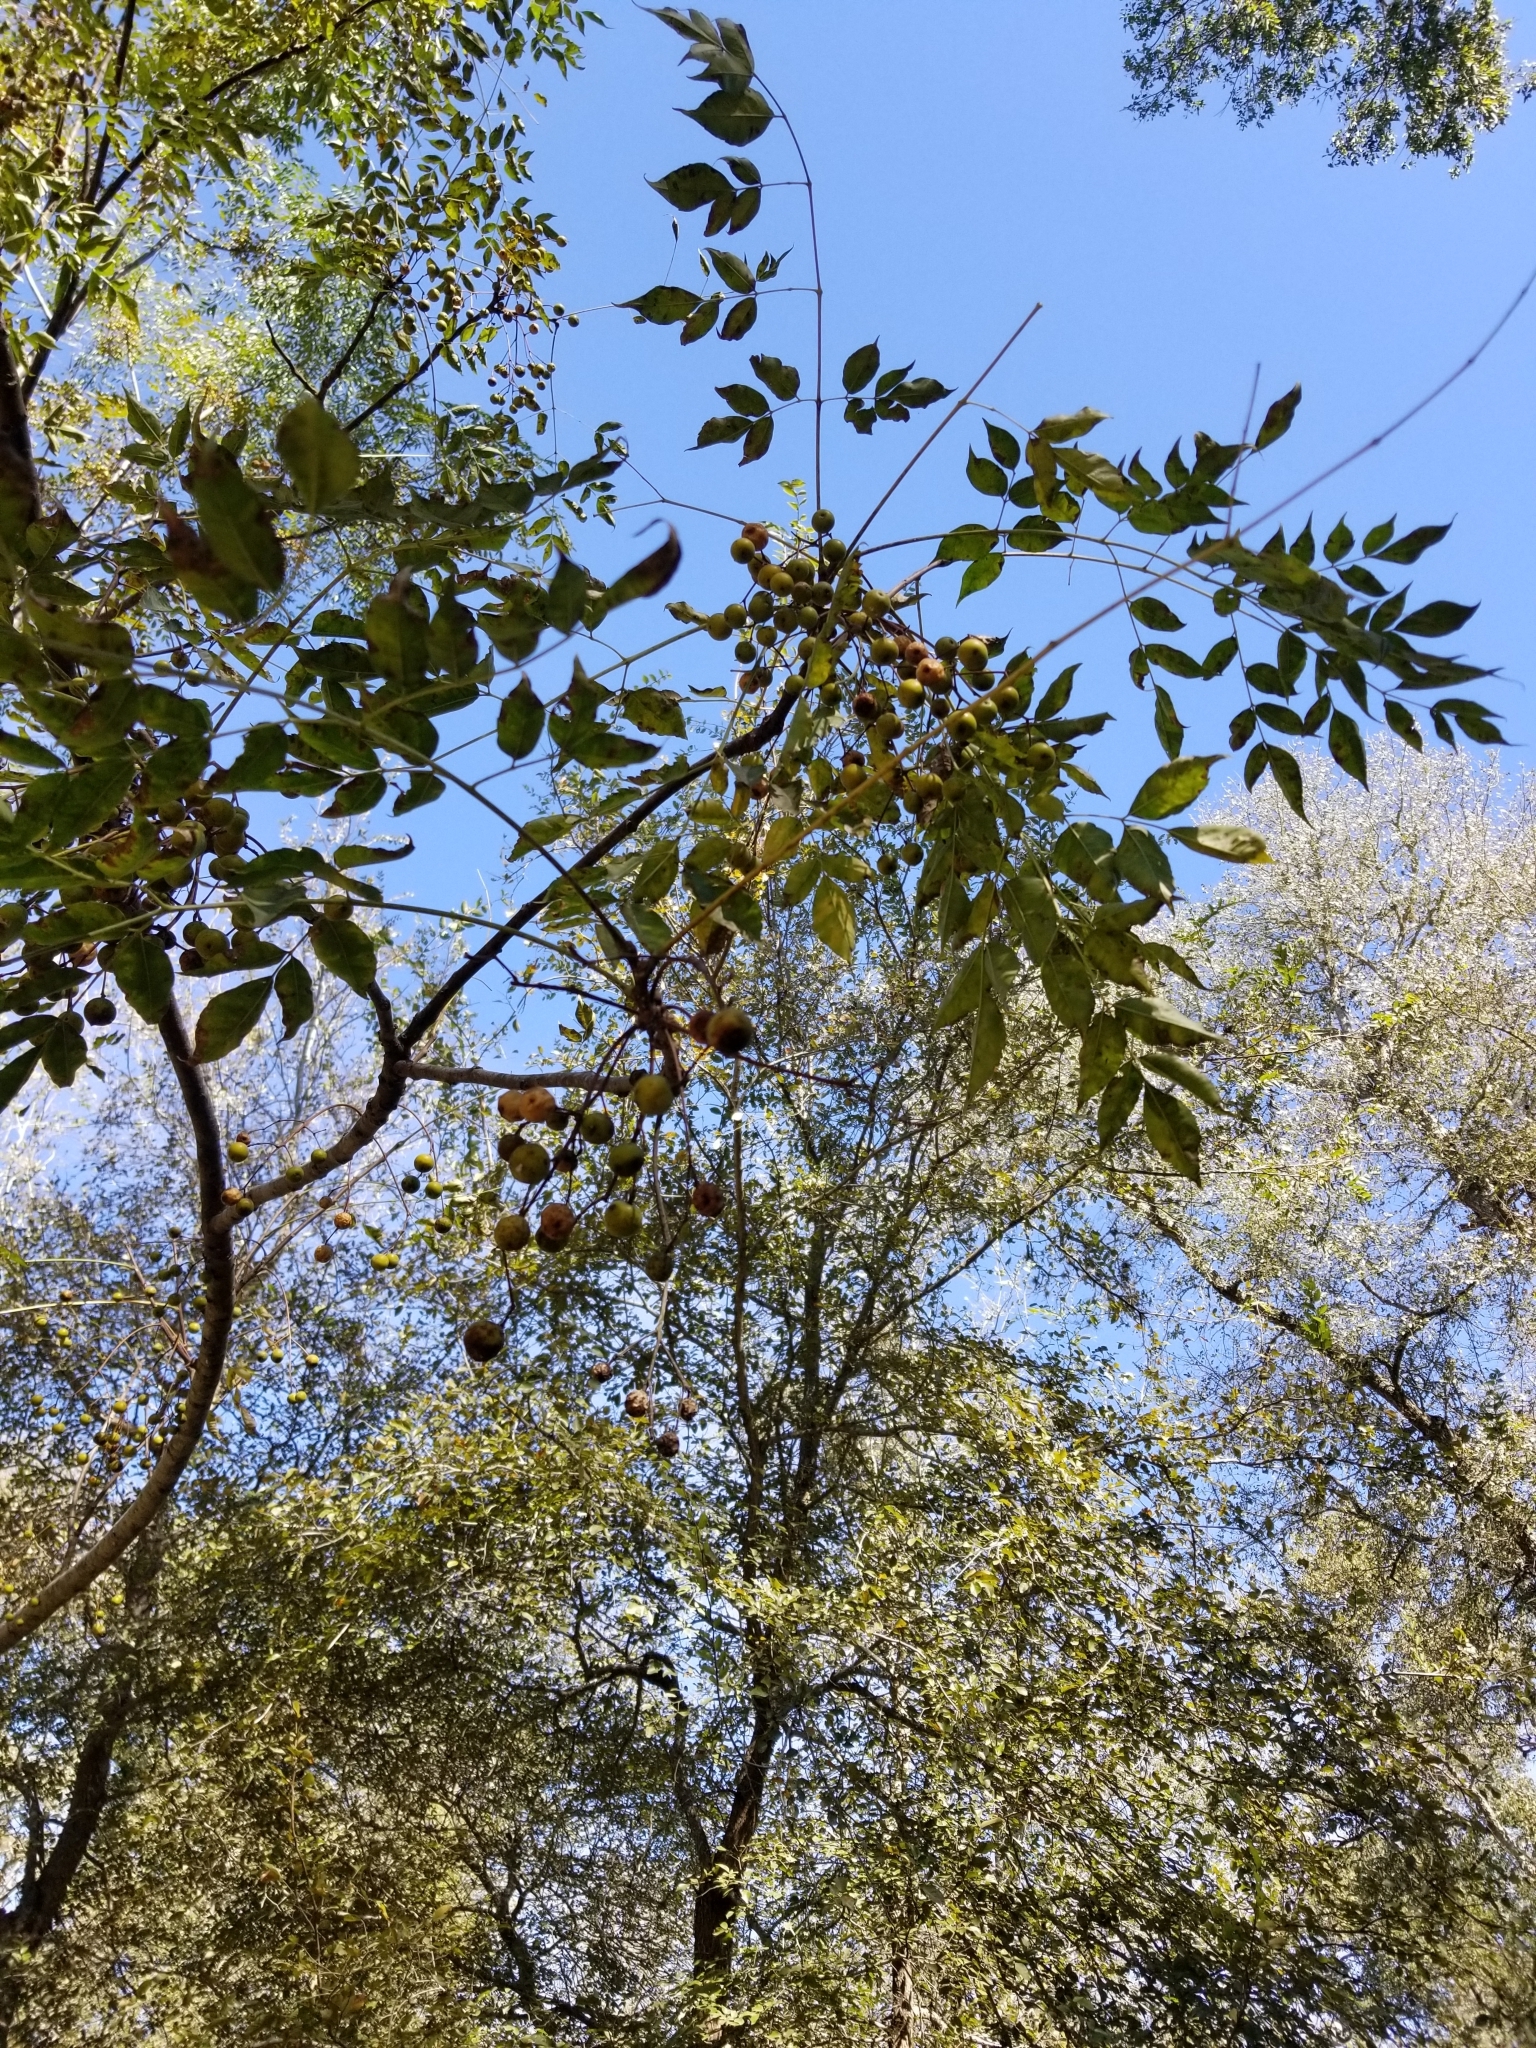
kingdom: Plantae
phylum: Tracheophyta
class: Magnoliopsida
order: Sapindales
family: Meliaceae
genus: Melia
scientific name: Melia azedarach
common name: Chinaberrytree
